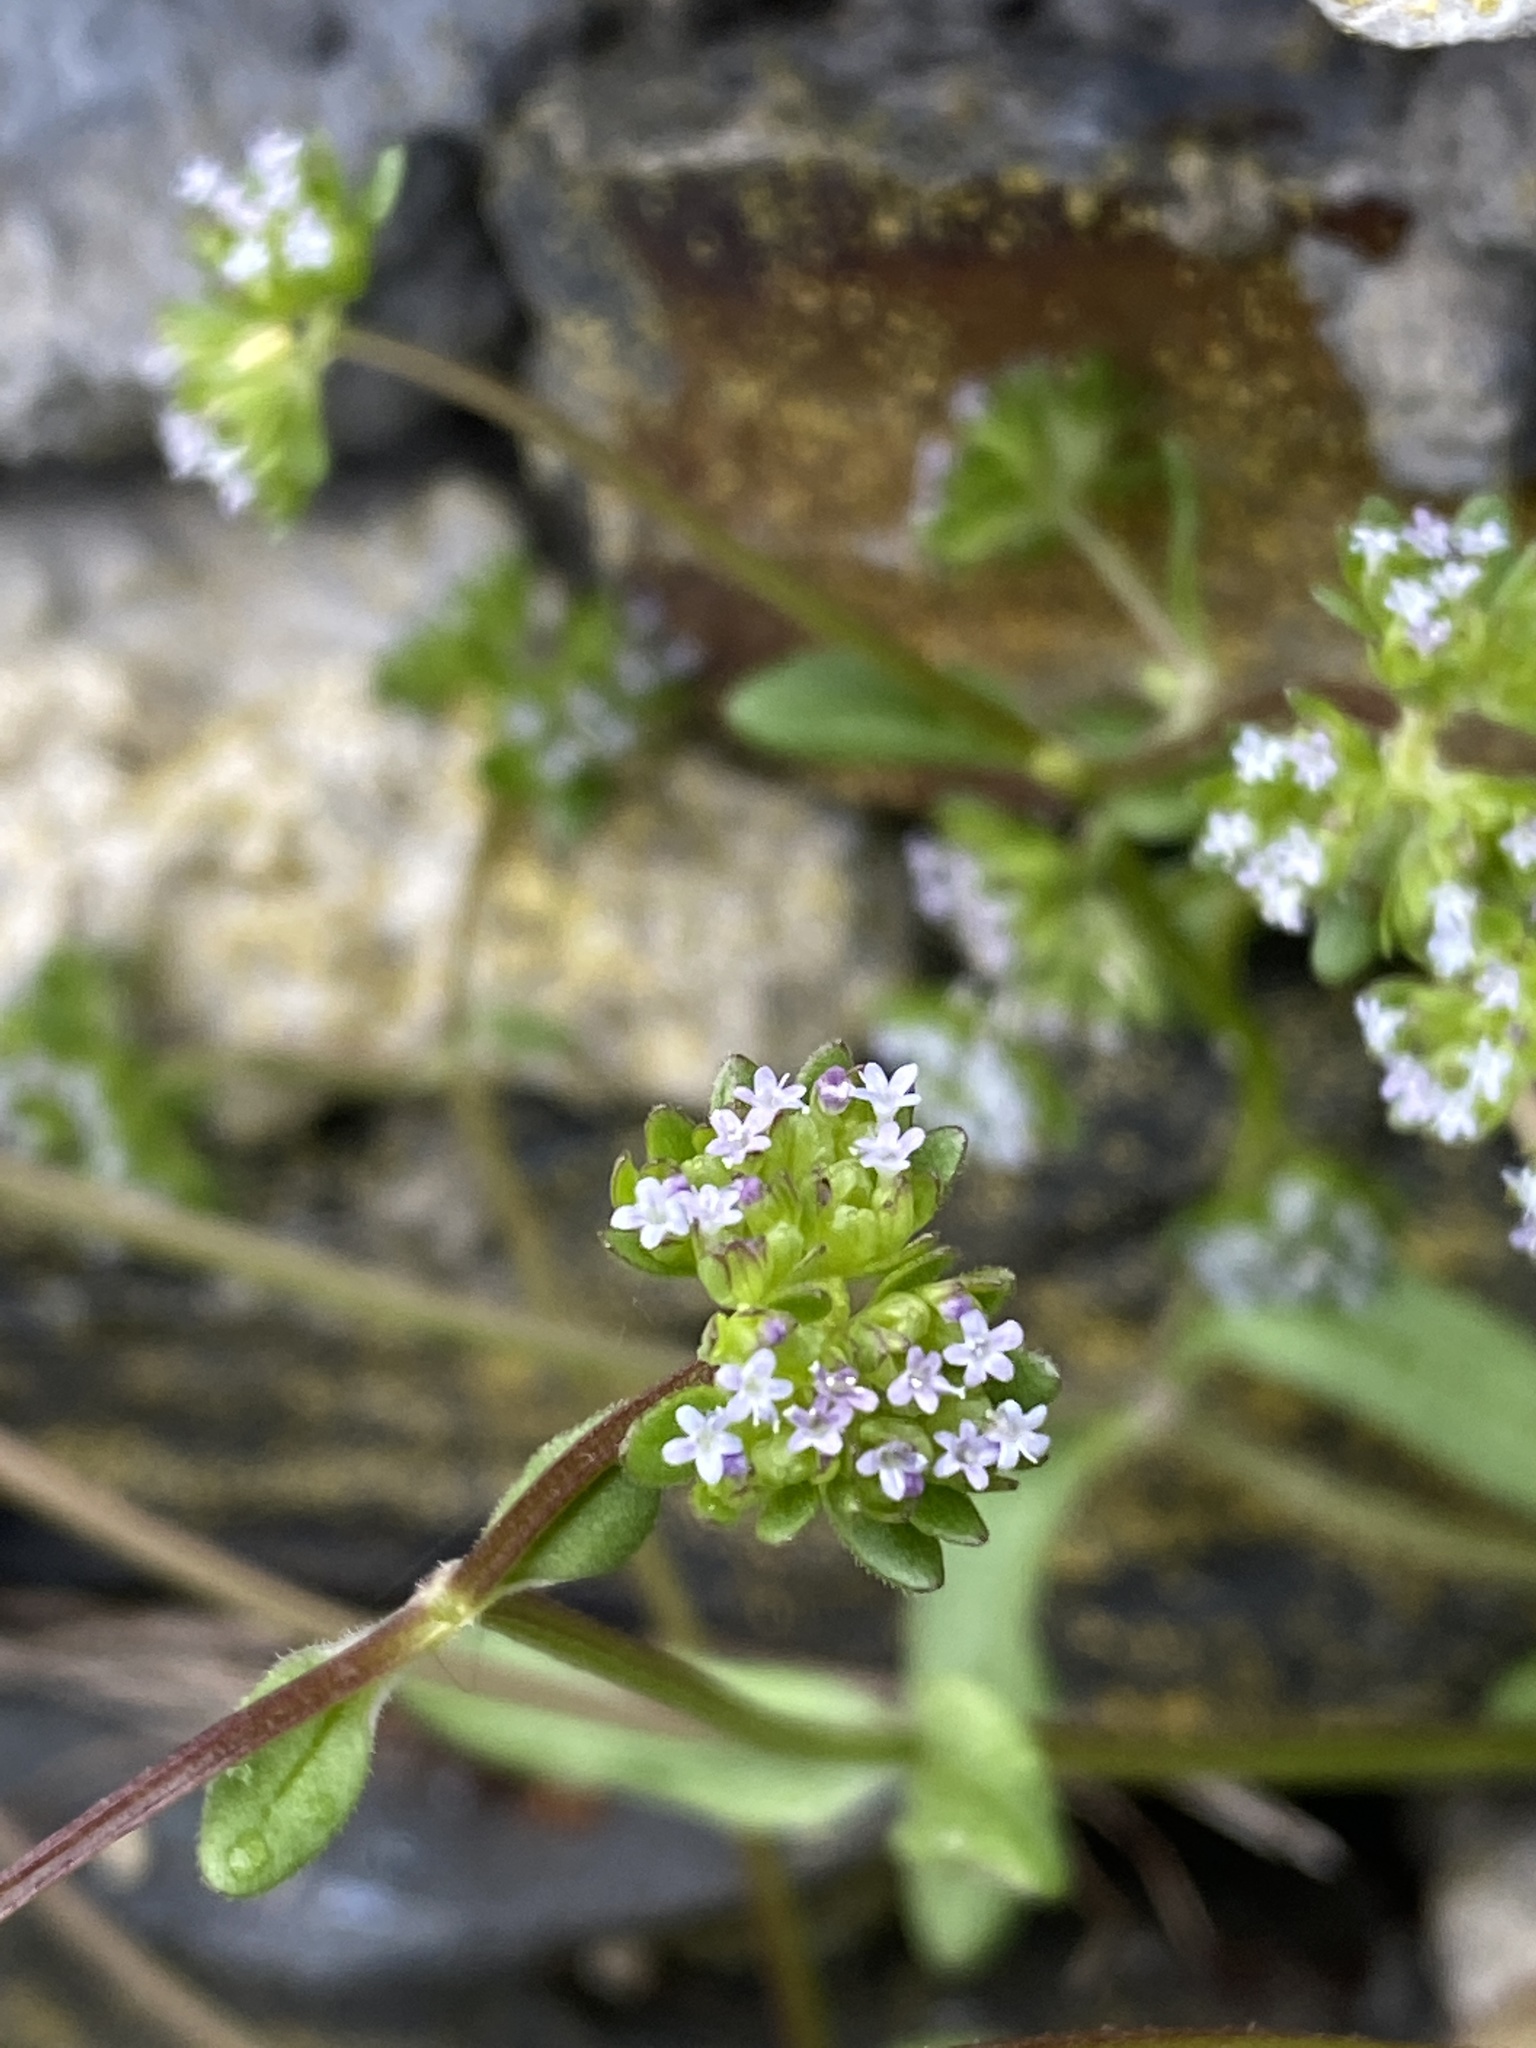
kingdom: Plantae
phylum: Tracheophyta
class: Magnoliopsida
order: Dipsacales
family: Caprifoliaceae
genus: Valerianella
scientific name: Valerianella locusta
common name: Common cornsalad
